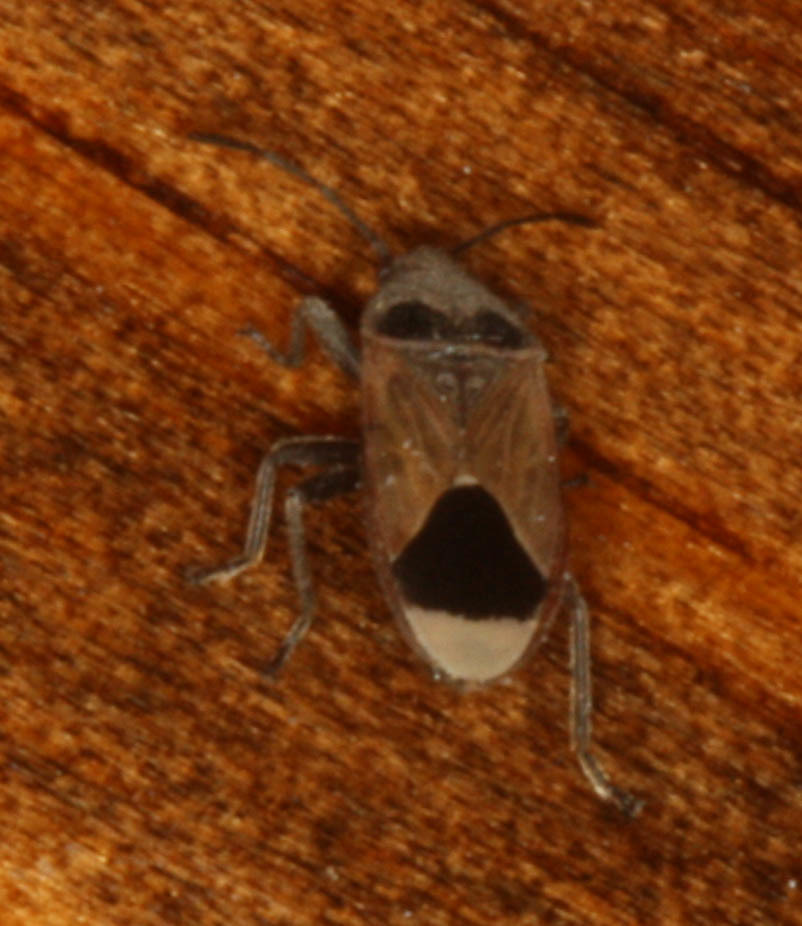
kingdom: Animalia
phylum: Arthropoda
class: Insecta
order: Hemiptera
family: Lygaeidae
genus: Melanotelus
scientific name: Melanotelus argillaceus
